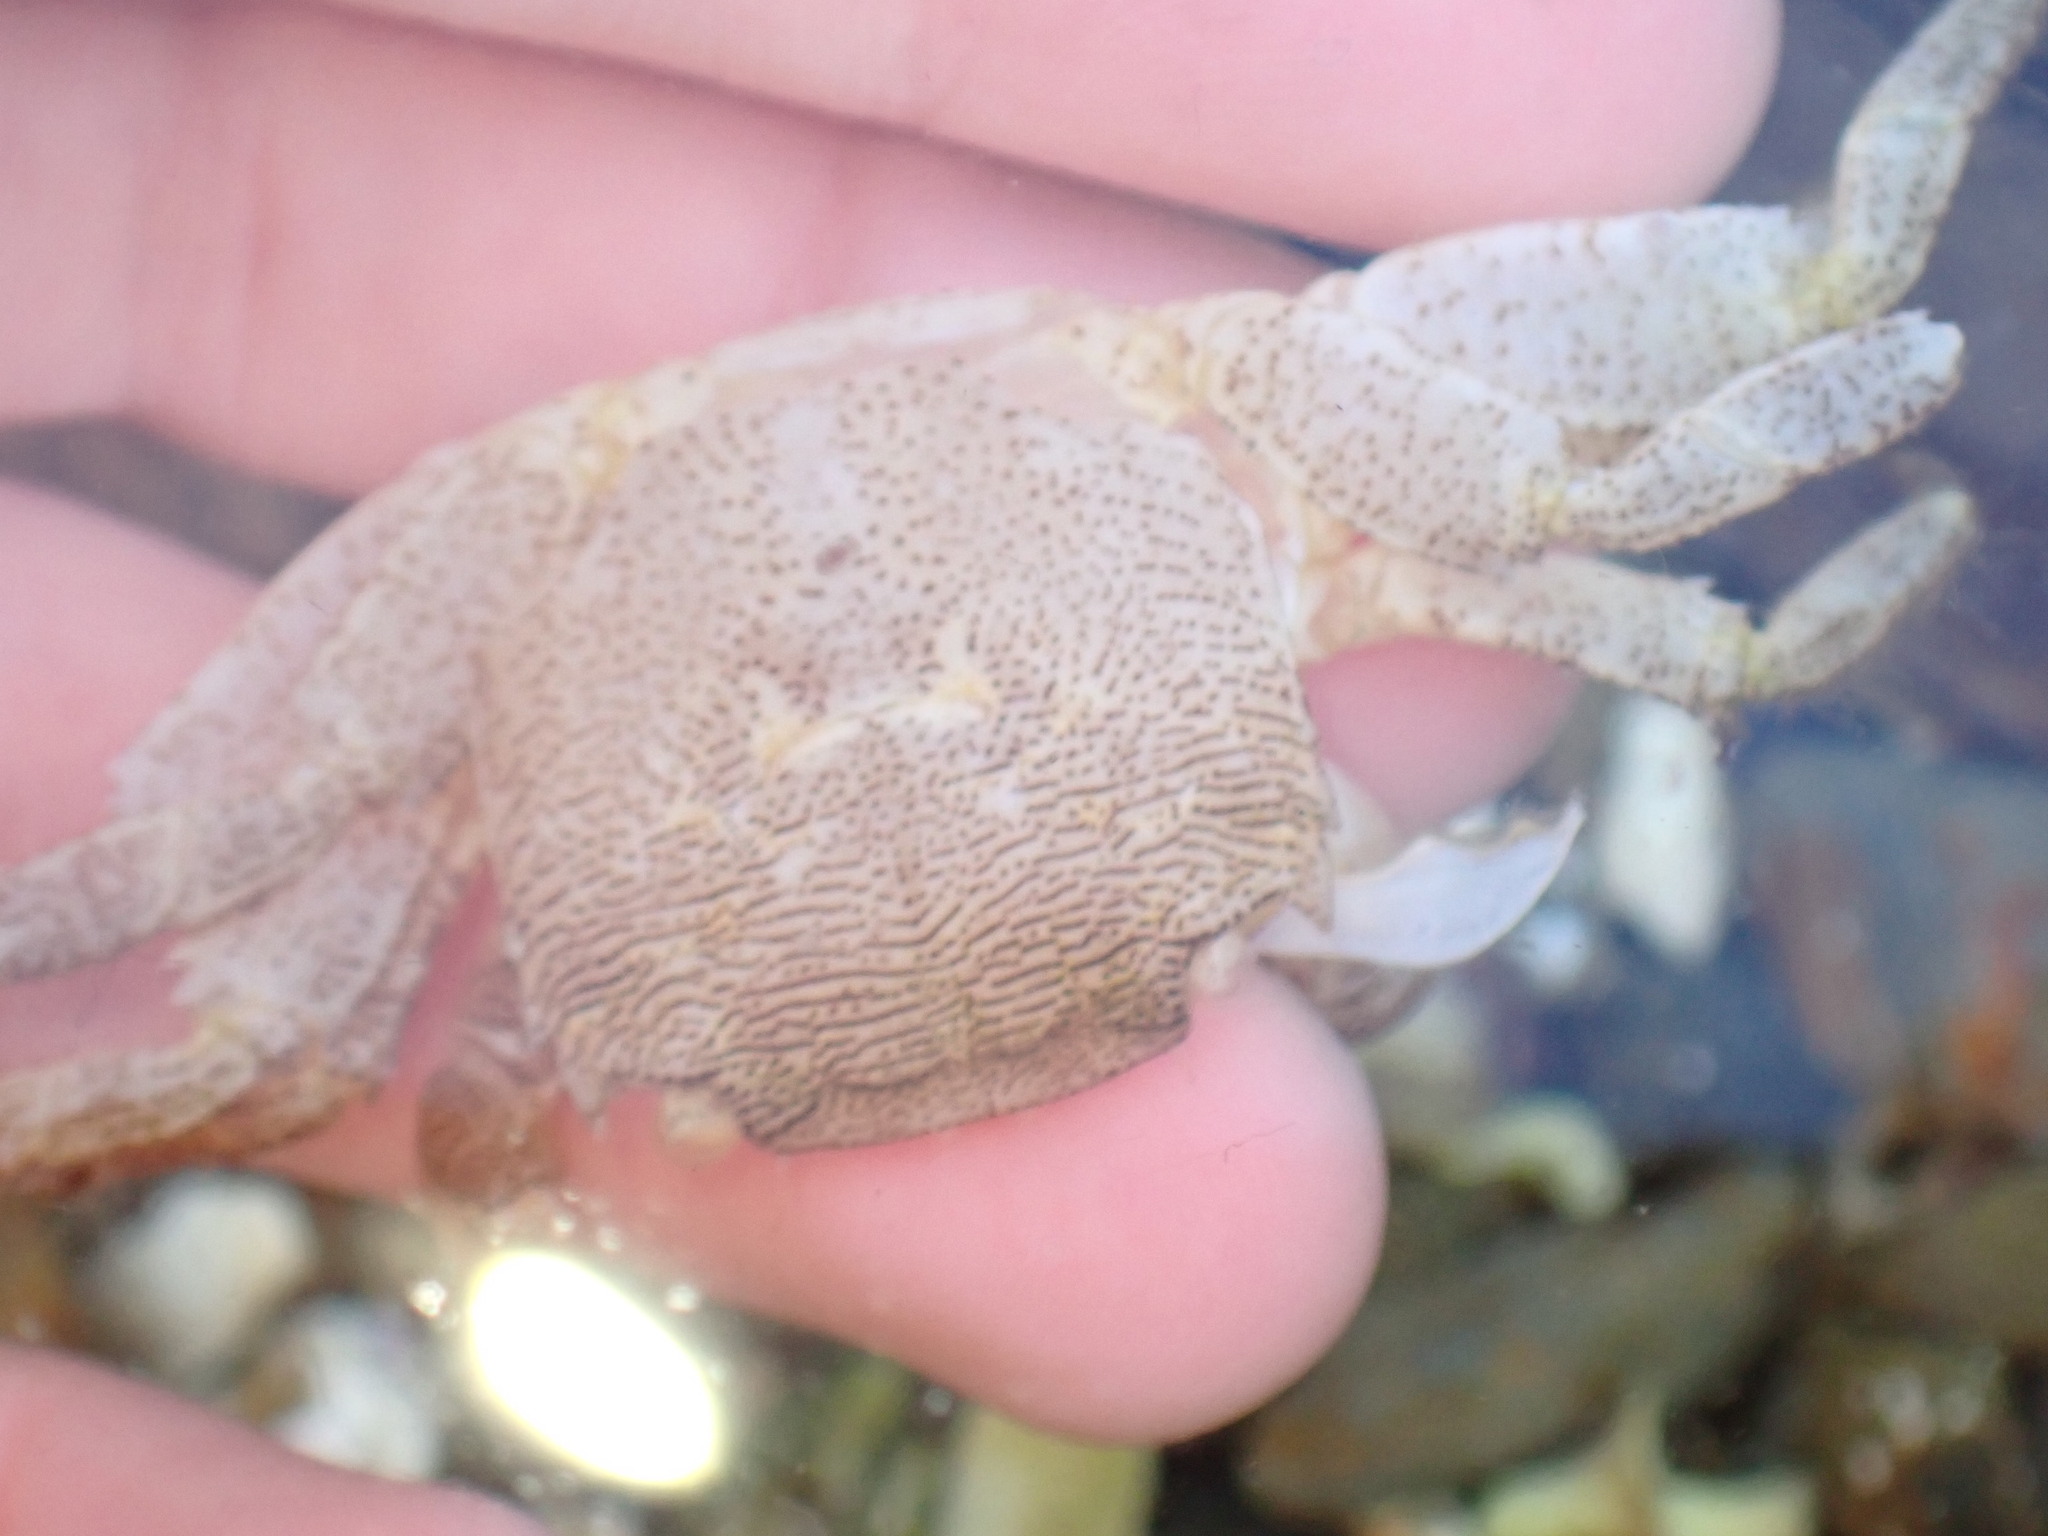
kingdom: Animalia
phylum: Arthropoda
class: Malacostraca
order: Decapoda
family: Grapsidae
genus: Pachygrapsus
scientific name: Pachygrapsus marmoratus
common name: Marbled rock crab
